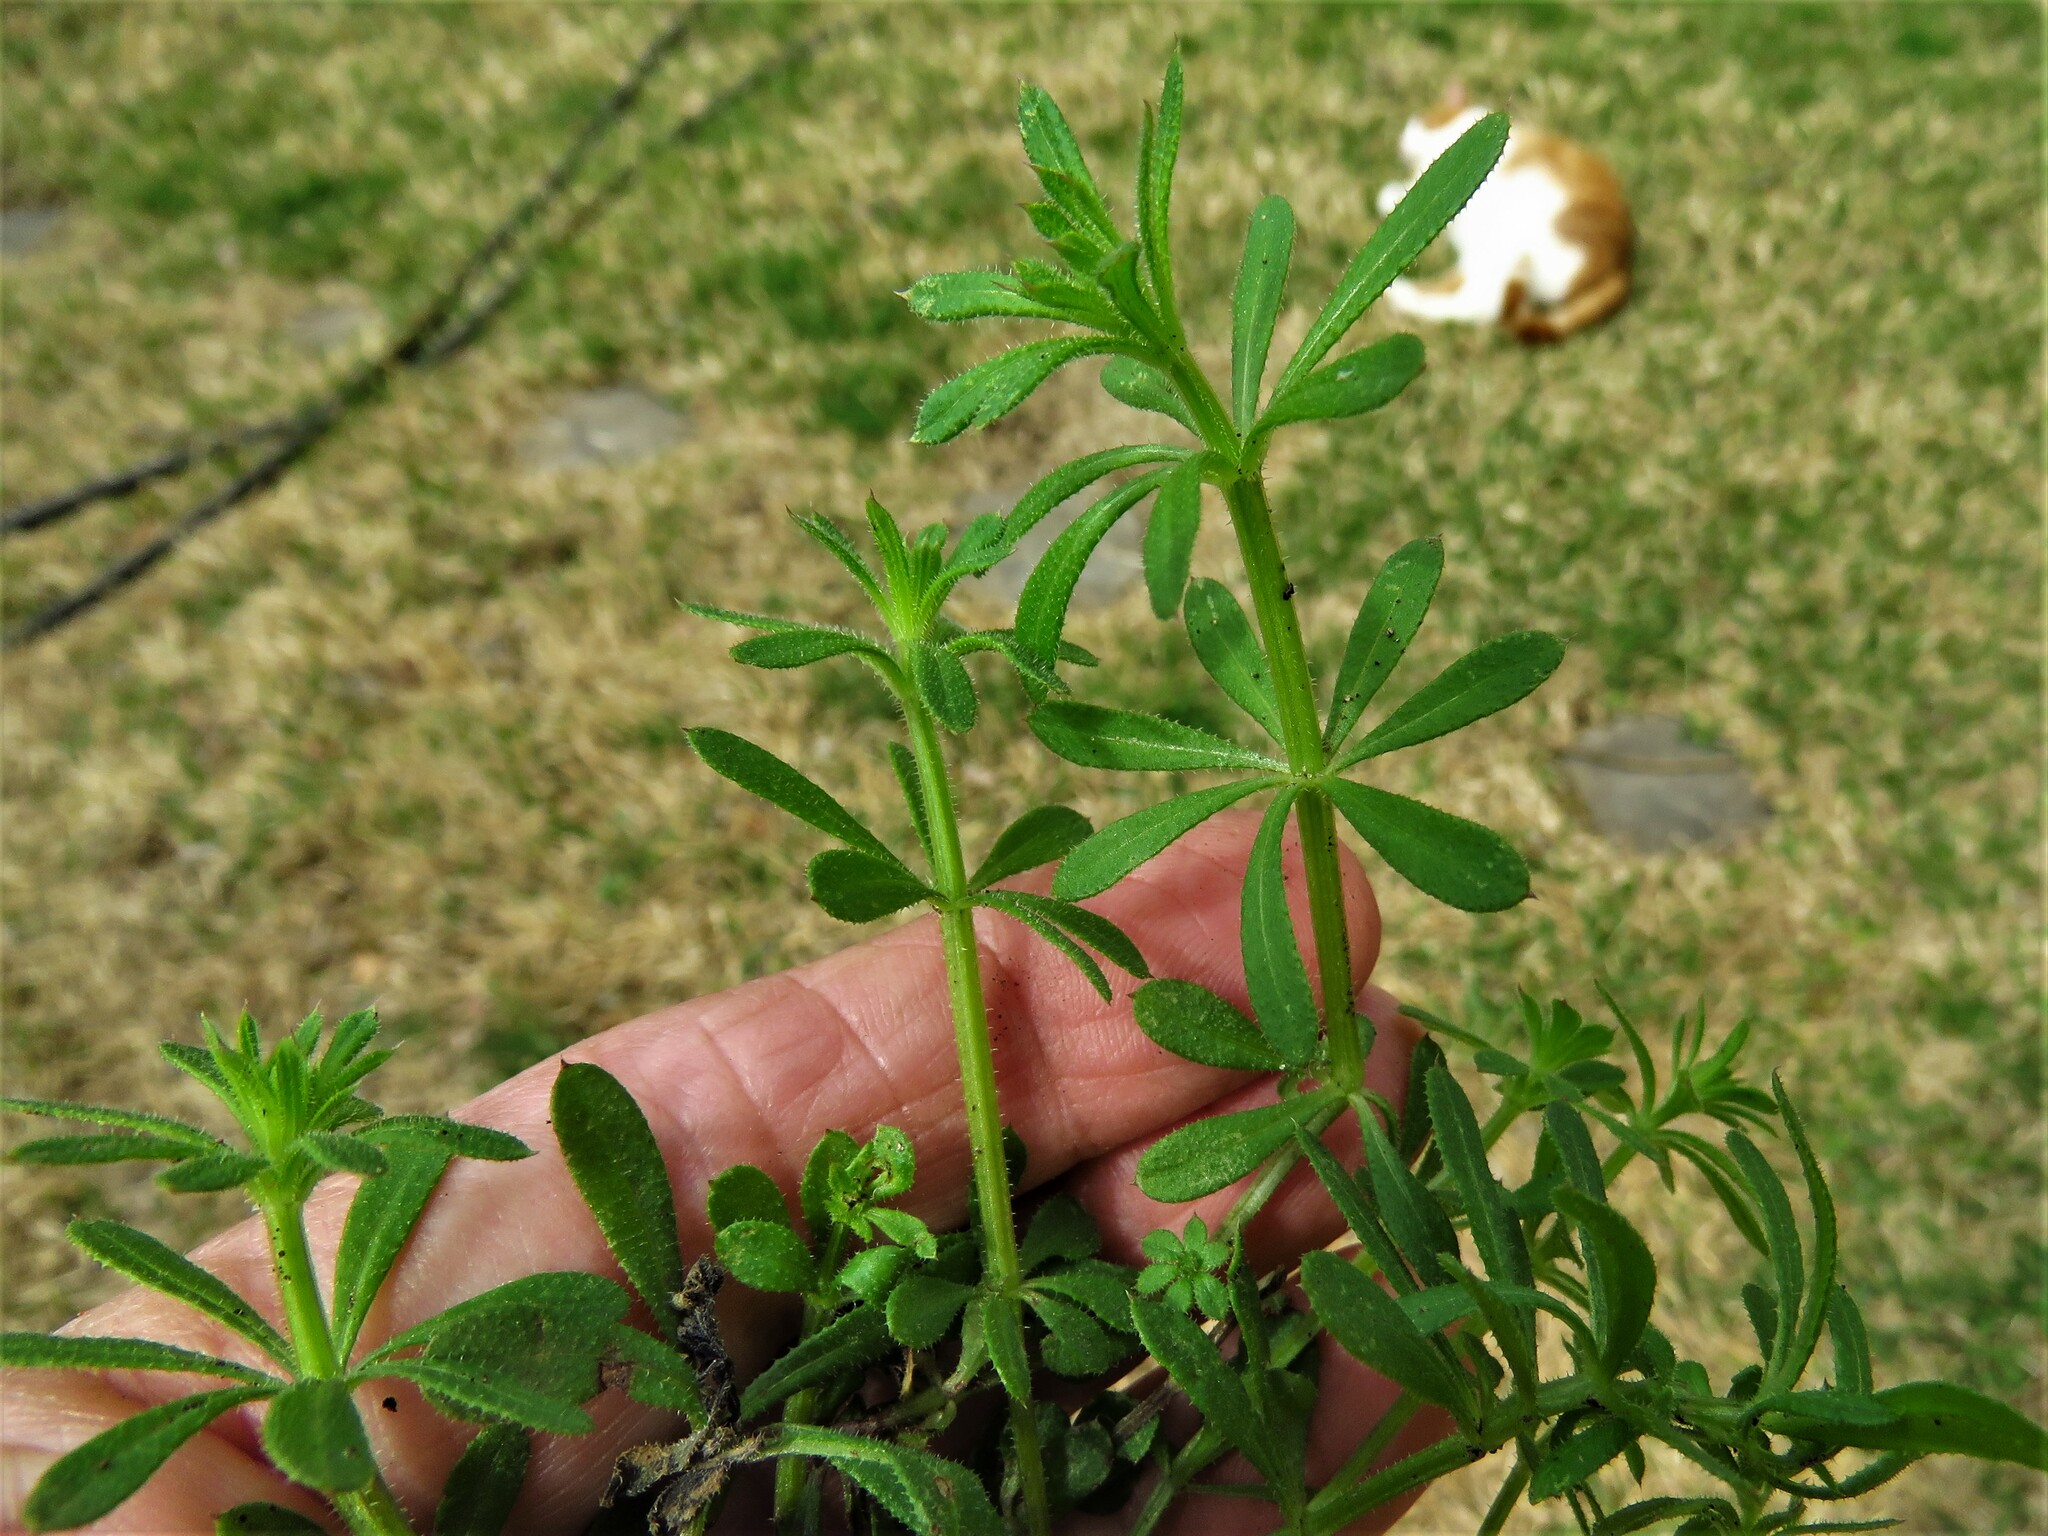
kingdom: Plantae
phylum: Tracheophyta
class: Magnoliopsida
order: Gentianales
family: Rubiaceae
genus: Galium
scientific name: Galium aparine
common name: Cleavers
